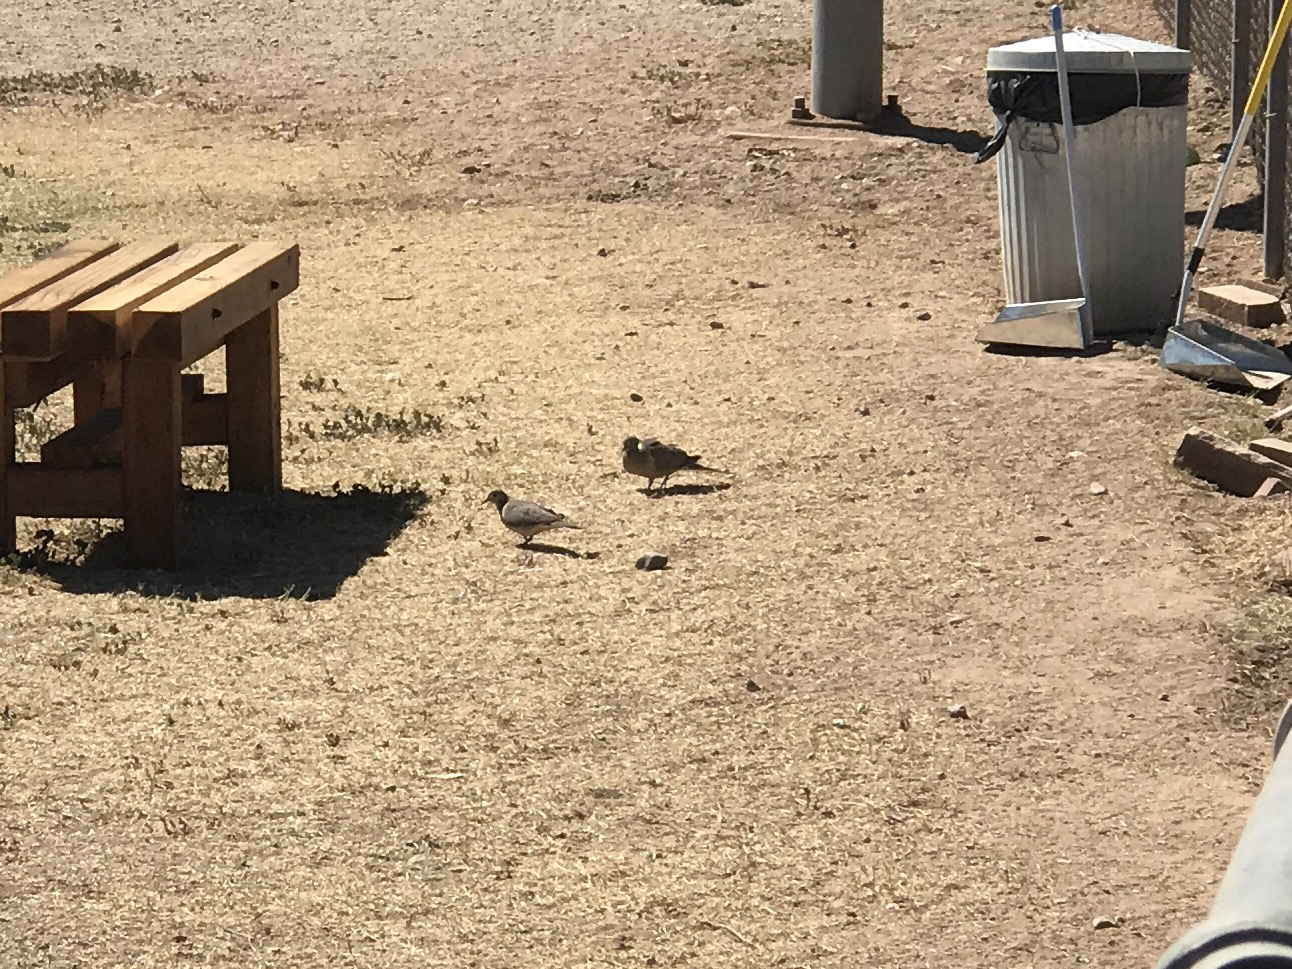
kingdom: Animalia
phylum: Chordata
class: Aves
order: Columbiformes
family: Columbidae
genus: Zenaida
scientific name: Zenaida macroura
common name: Mourning dove
